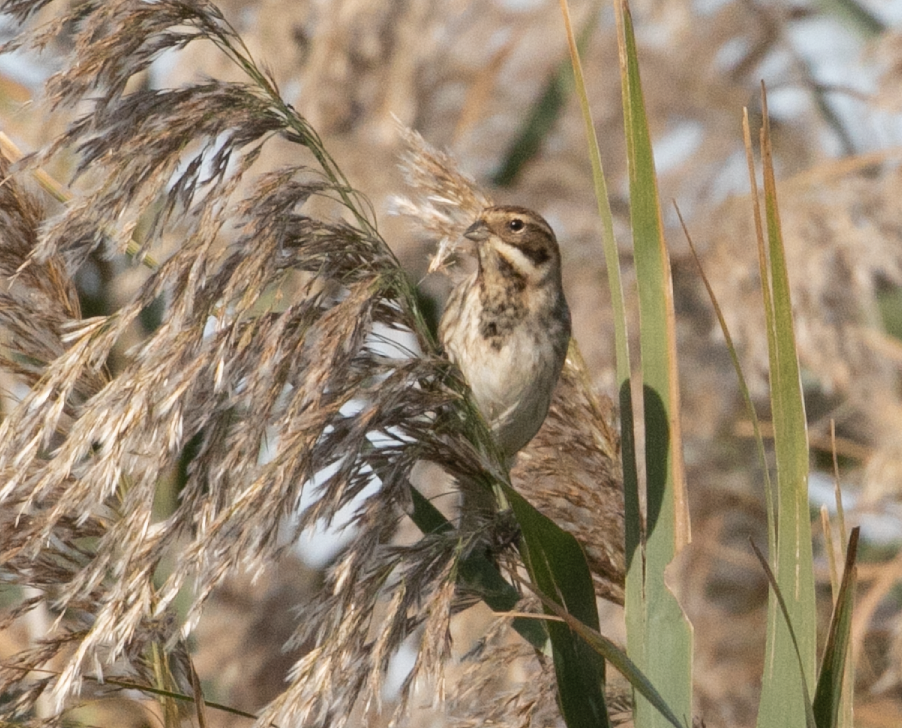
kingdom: Animalia
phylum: Chordata
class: Aves
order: Passeriformes
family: Emberizidae
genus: Emberiza
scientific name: Emberiza schoeniclus
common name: Reed bunting
